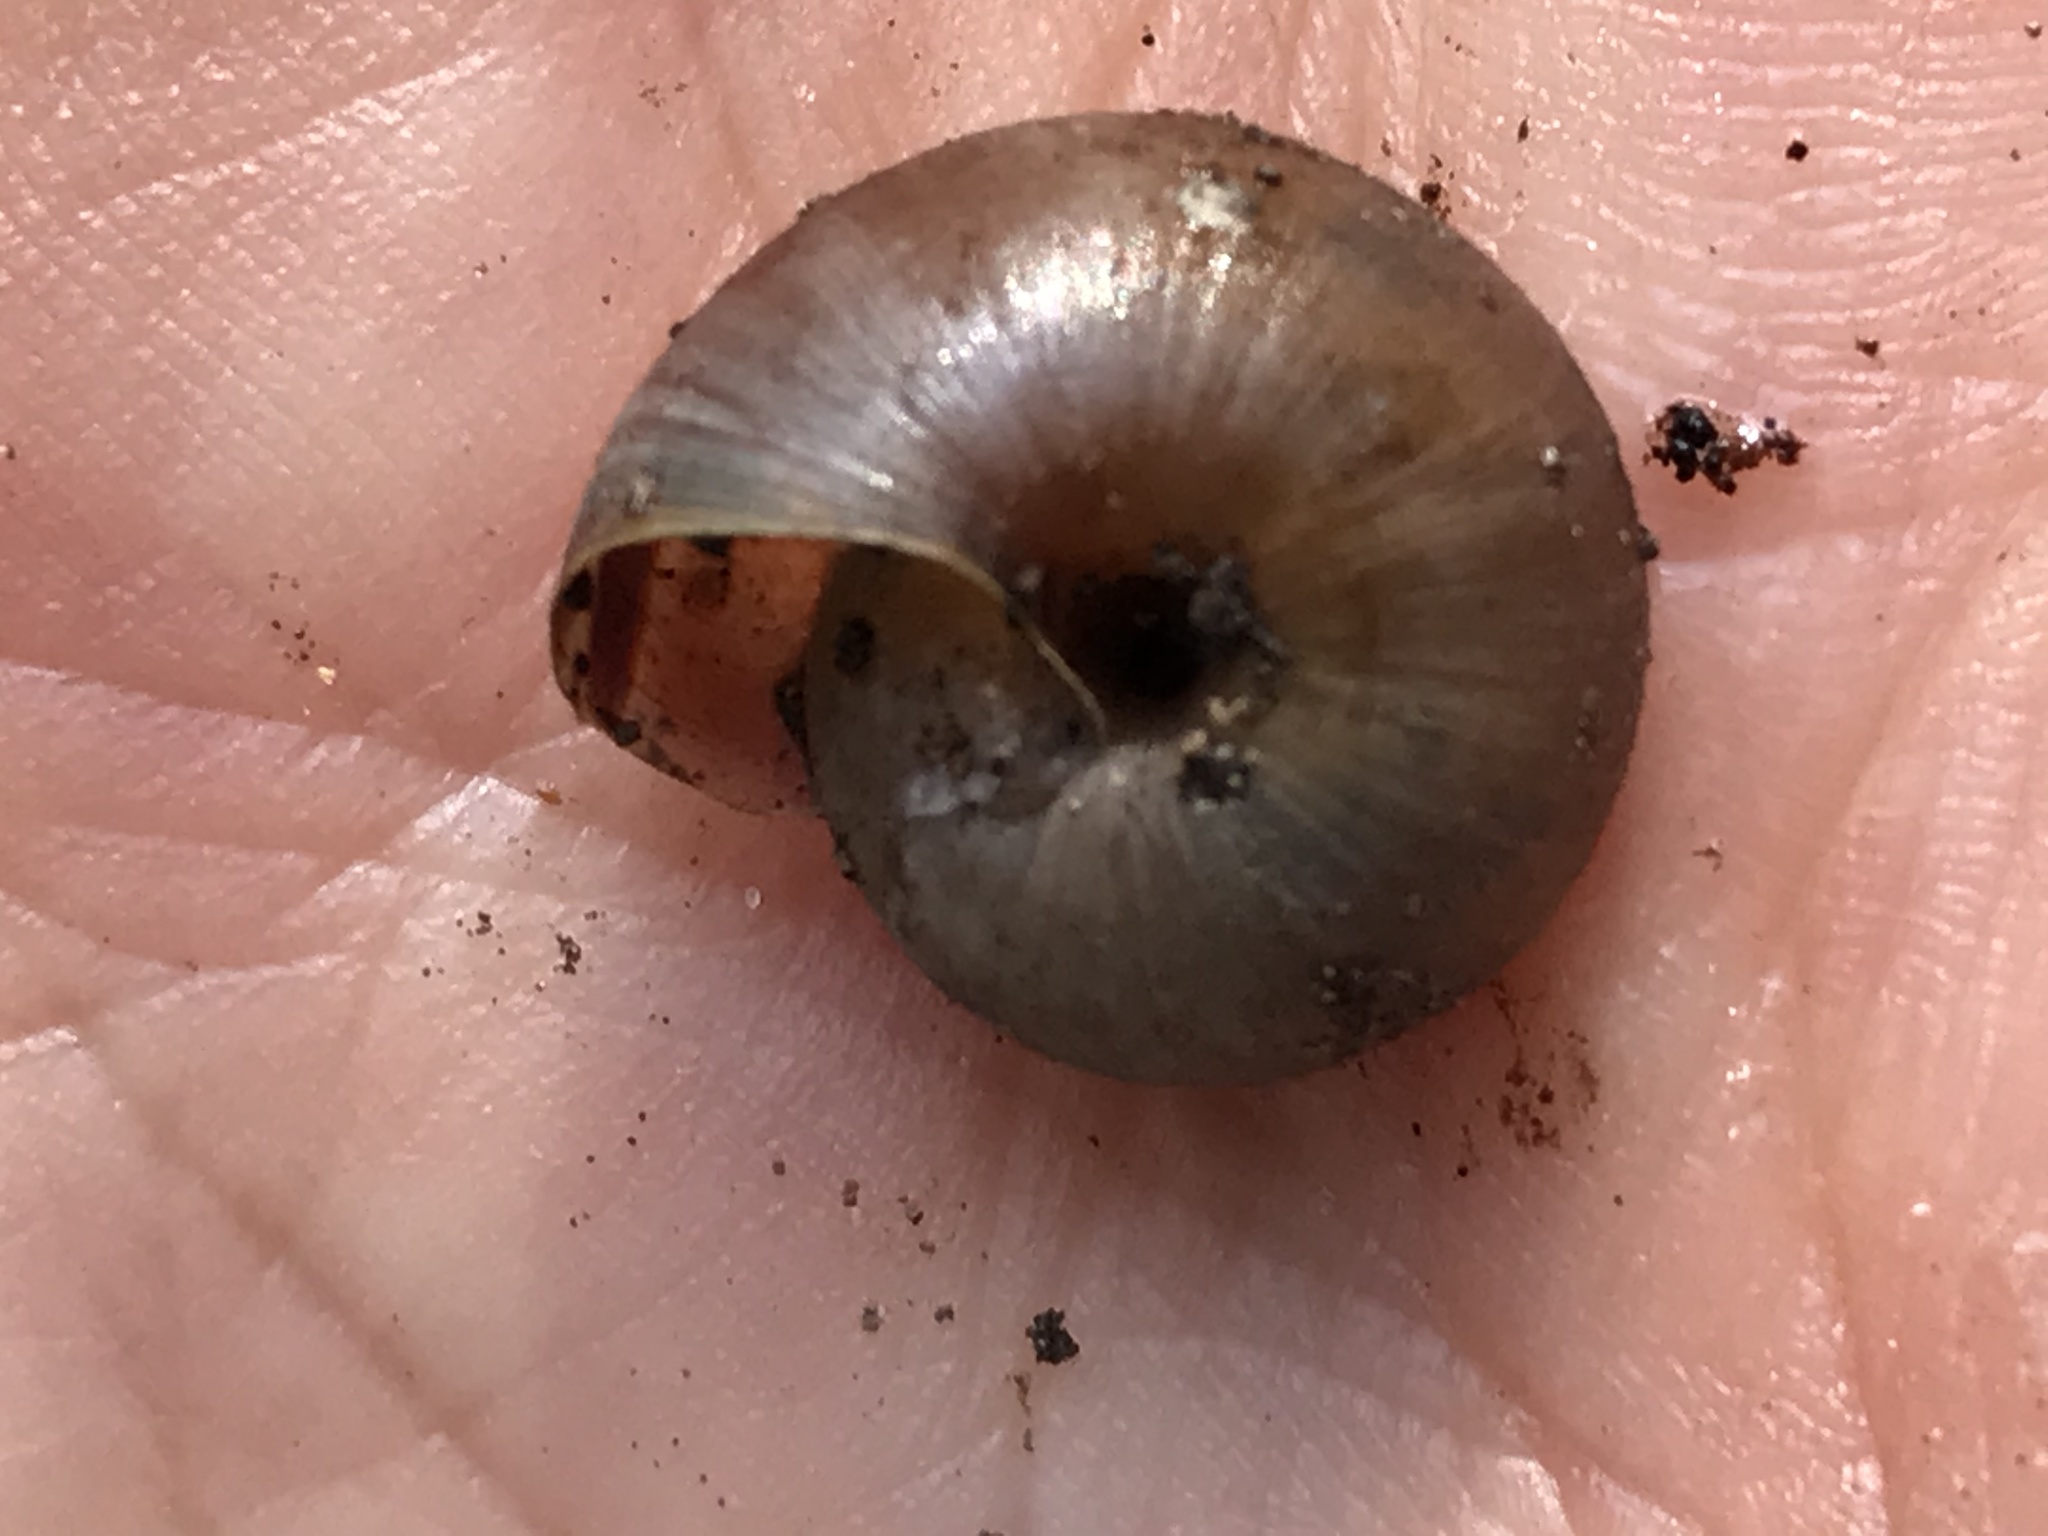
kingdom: Animalia
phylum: Mollusca
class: Gastropoda
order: Stylommatophora
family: Xanthonychidae
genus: Helminthoglypta
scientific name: Helminthoglypta umbilicata
